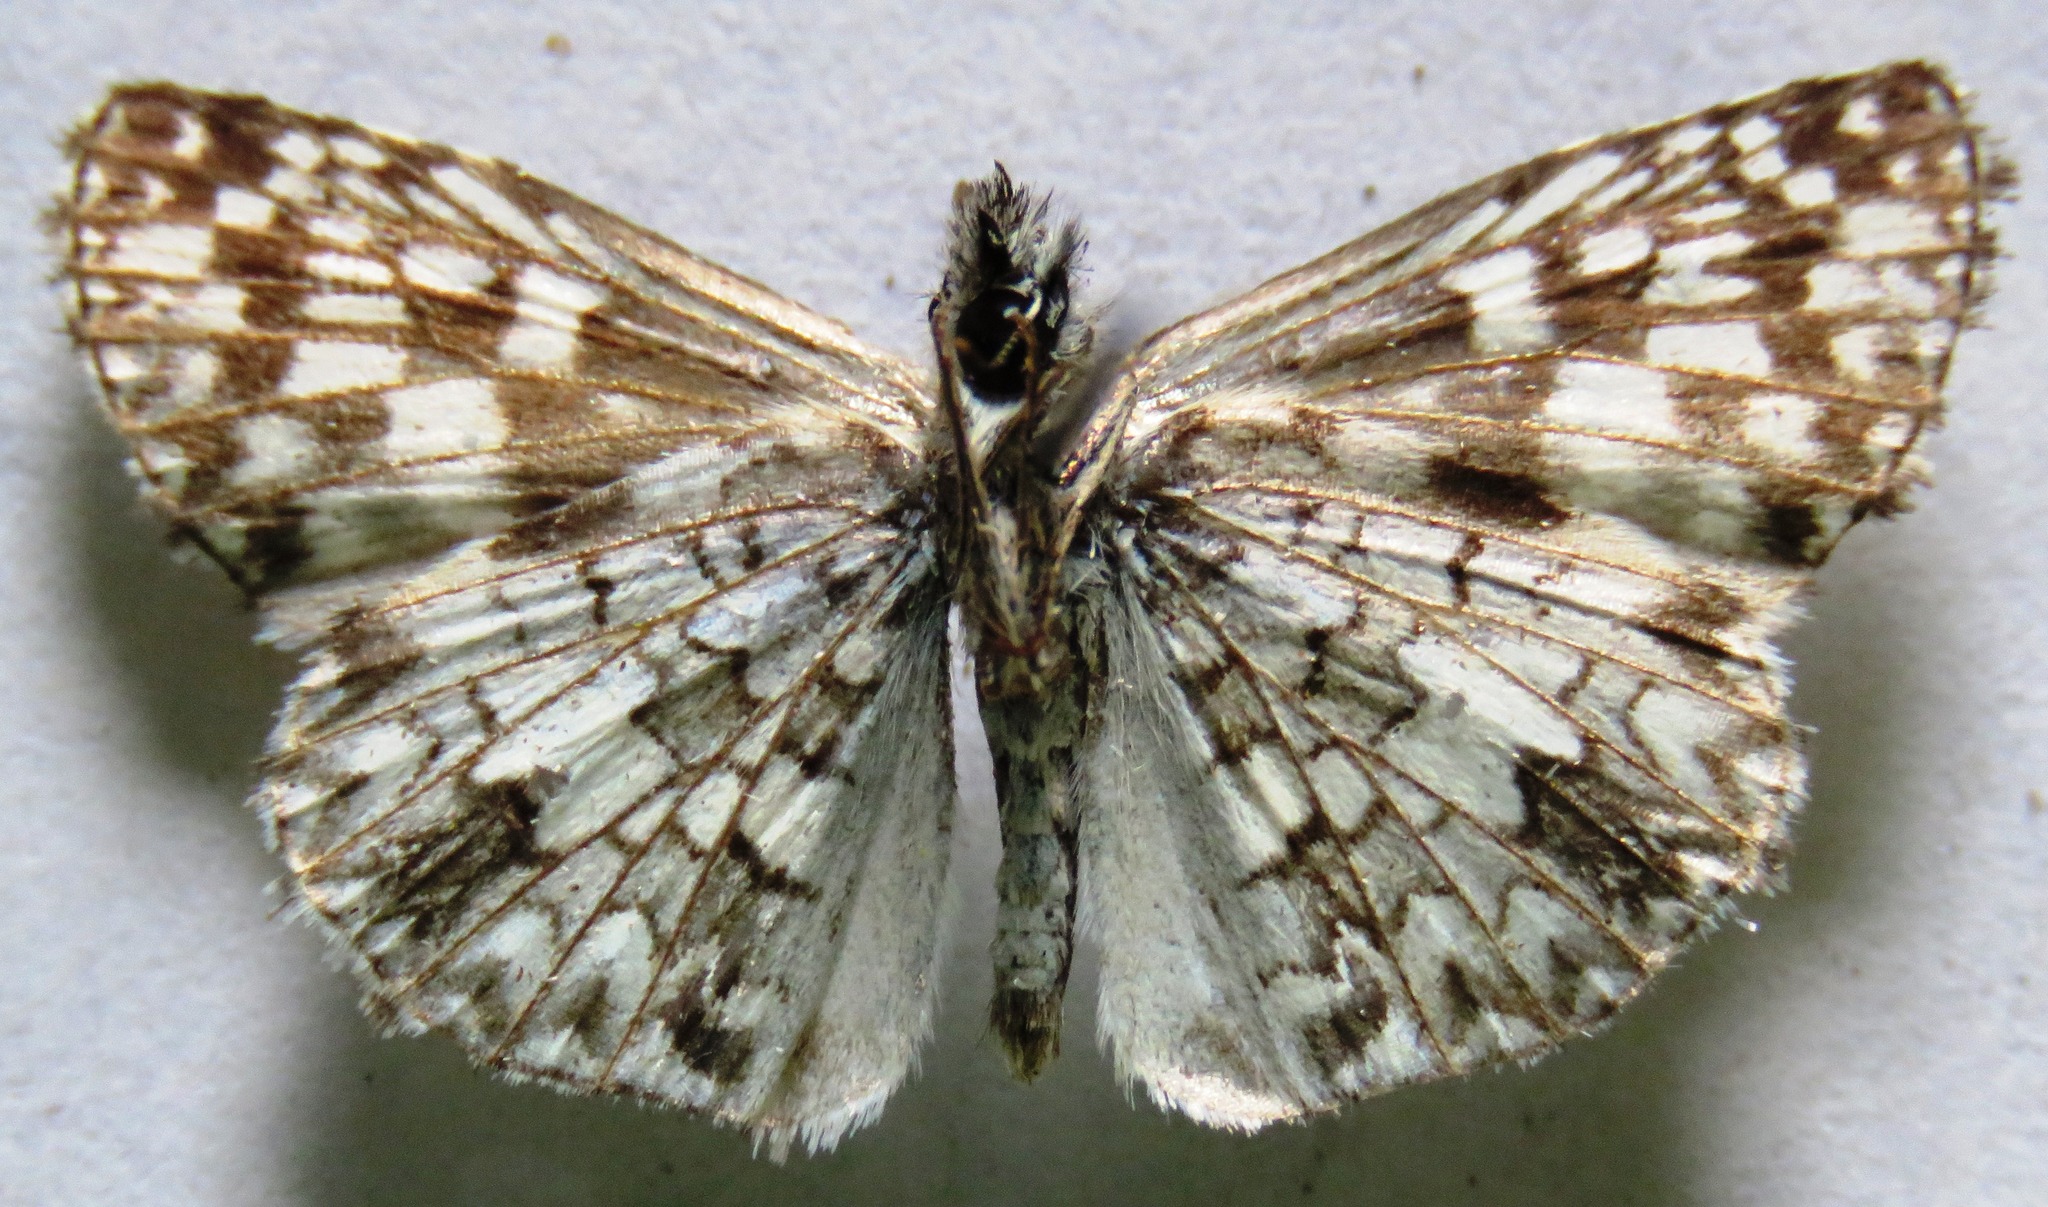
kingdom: Animalia
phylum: Arthropoda
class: Insecta
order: Lepidoptera
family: Hesperiidae
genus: Pyrgus
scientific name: Pyrgus oileus
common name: Tropical checkered-skipper
